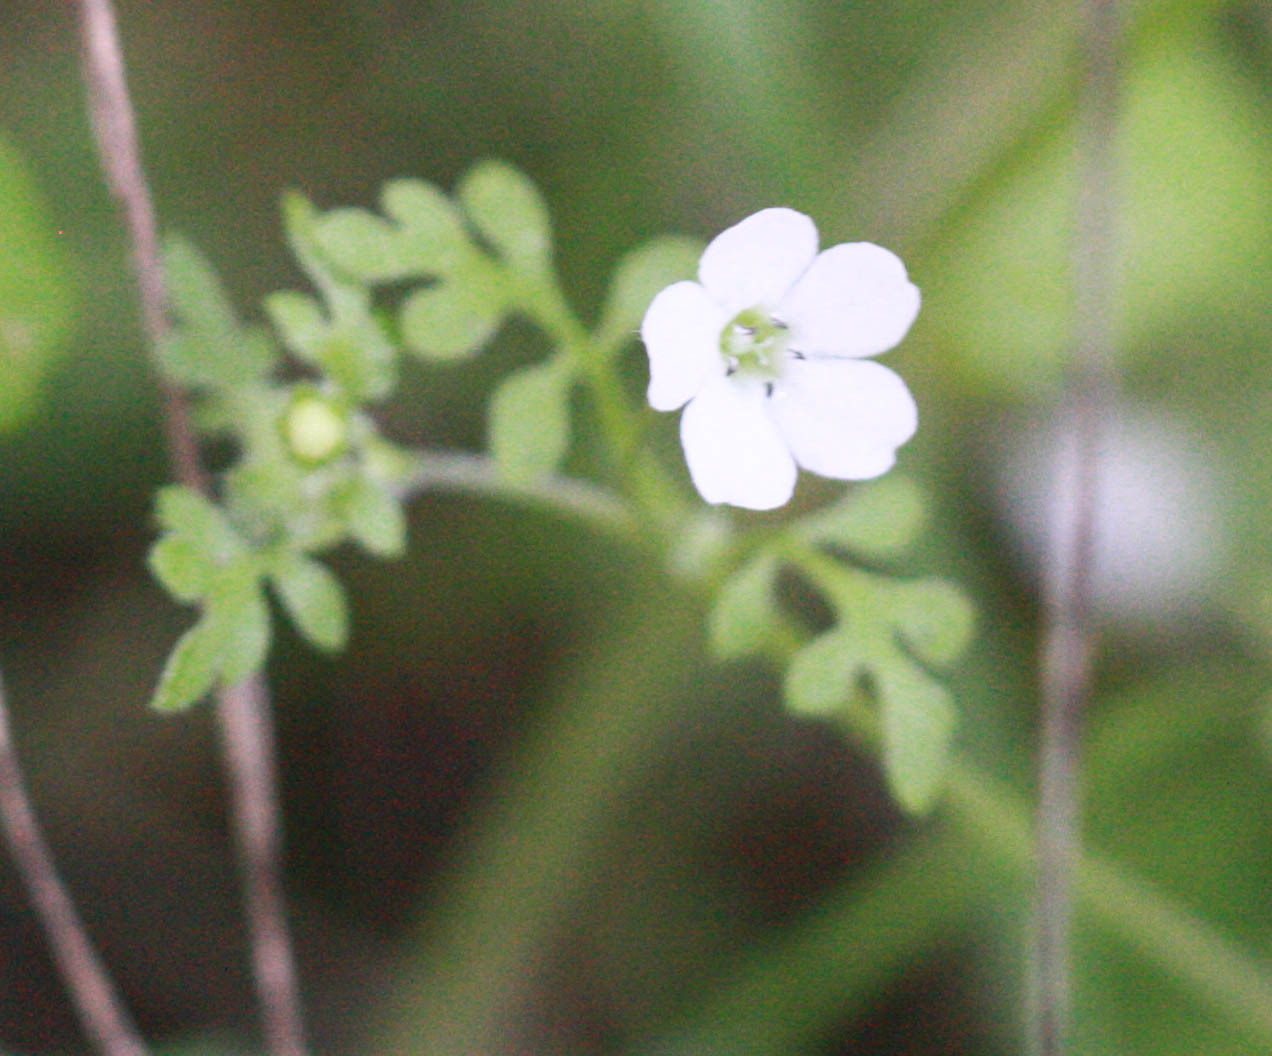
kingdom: Plantae
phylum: Tracheophyta
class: Magnoliopsida
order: Boraginales
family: Hydrophyllaceae
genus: Nemophila
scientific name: Nemophila heterophylla
